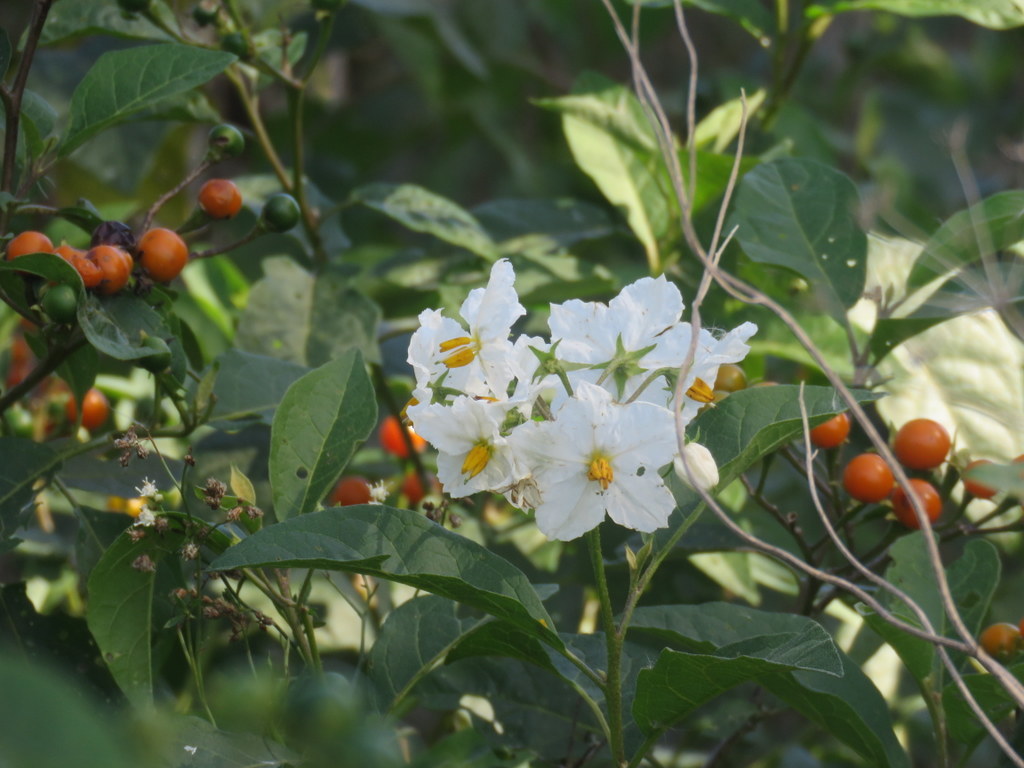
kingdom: Plantae
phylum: Tracheophyta
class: Magnoliopsida
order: Solanales
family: Solanaceae
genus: Solanum
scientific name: Solanum bonariense
